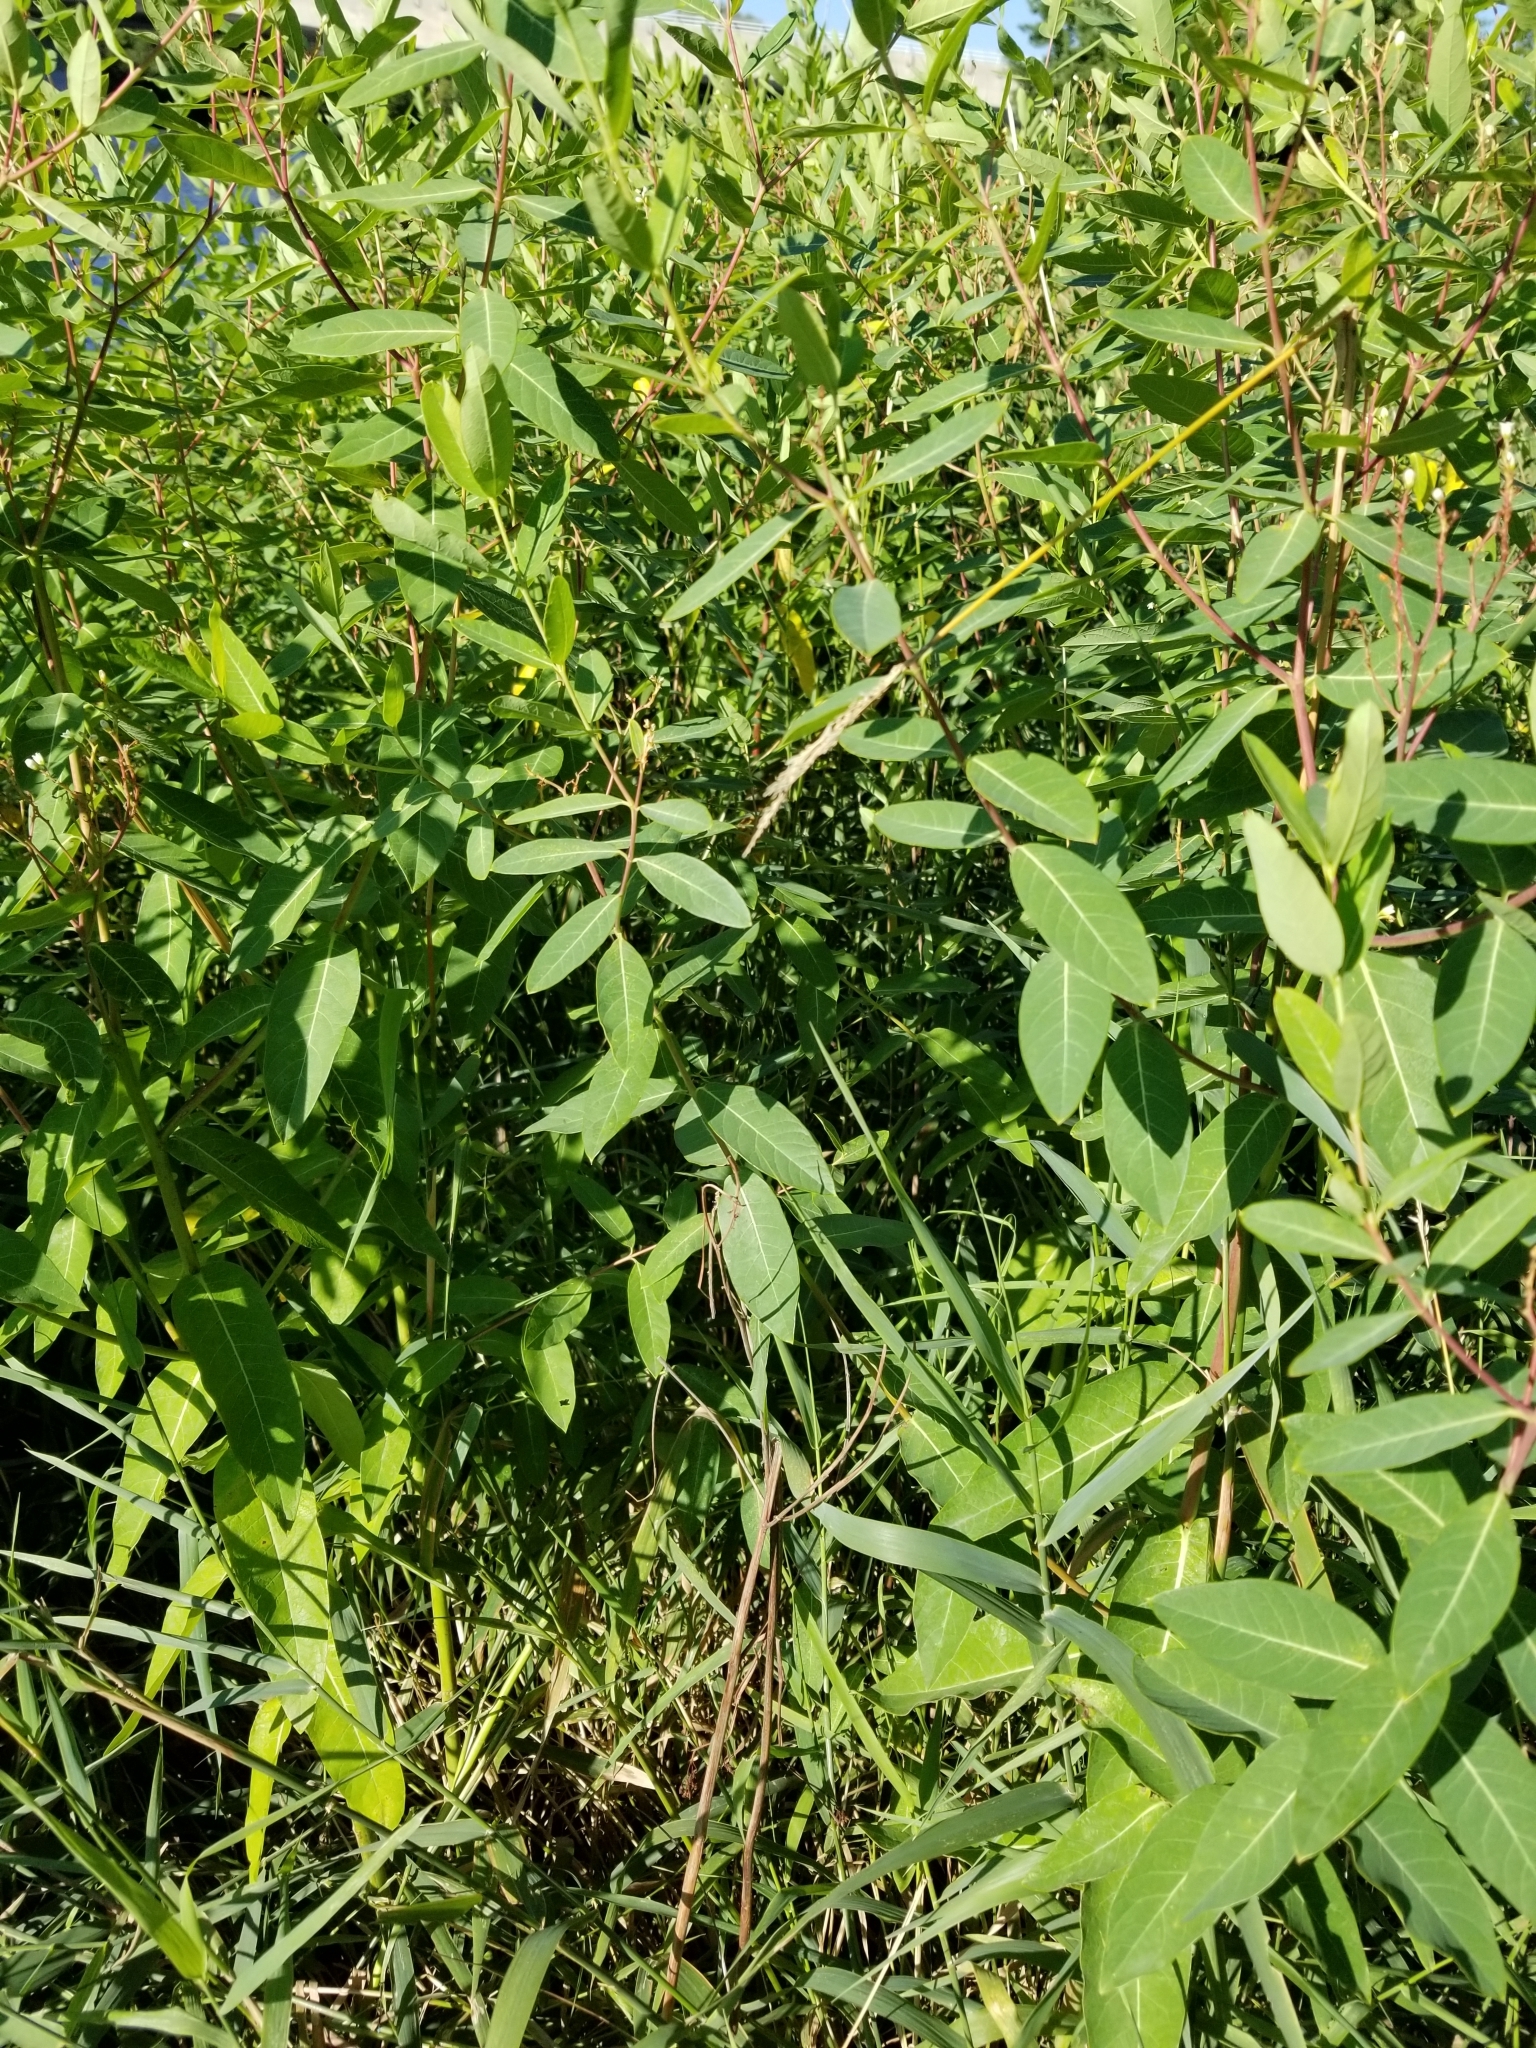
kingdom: Plantae
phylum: Tracheophyta
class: Magnoliopsida
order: Gentianales
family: Apocynaceae
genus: Apocynum
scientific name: Apocynum cannabinum
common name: Hemp dogbane
